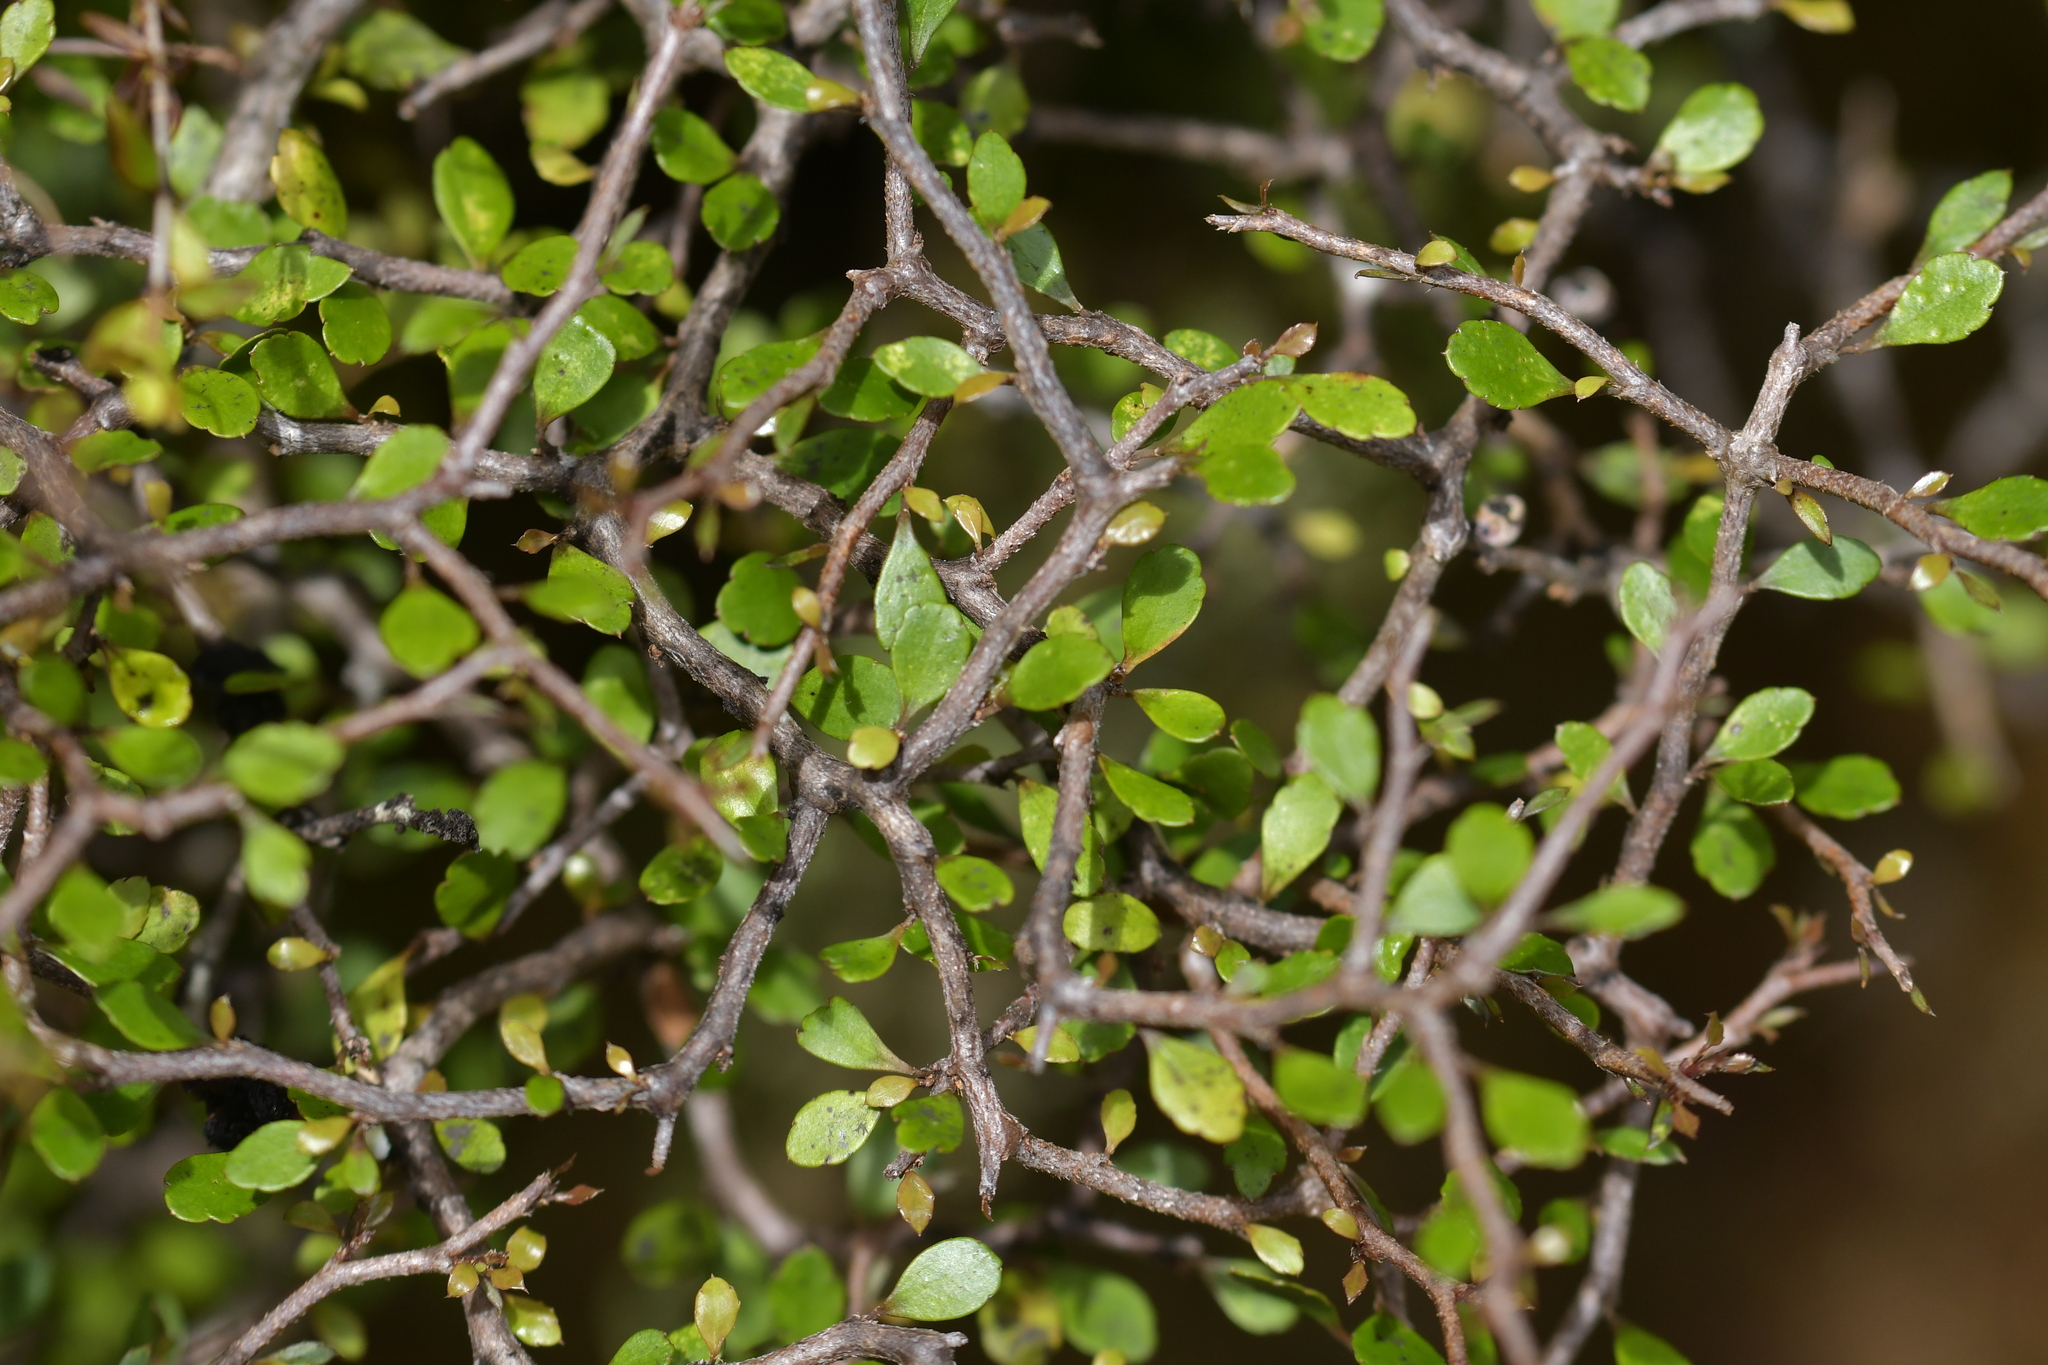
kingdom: Plantae
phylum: Tracheophyta
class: Magnoliopsida
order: Apiales
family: Araliaceae
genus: Raukaua
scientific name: Raukaua anomalus
